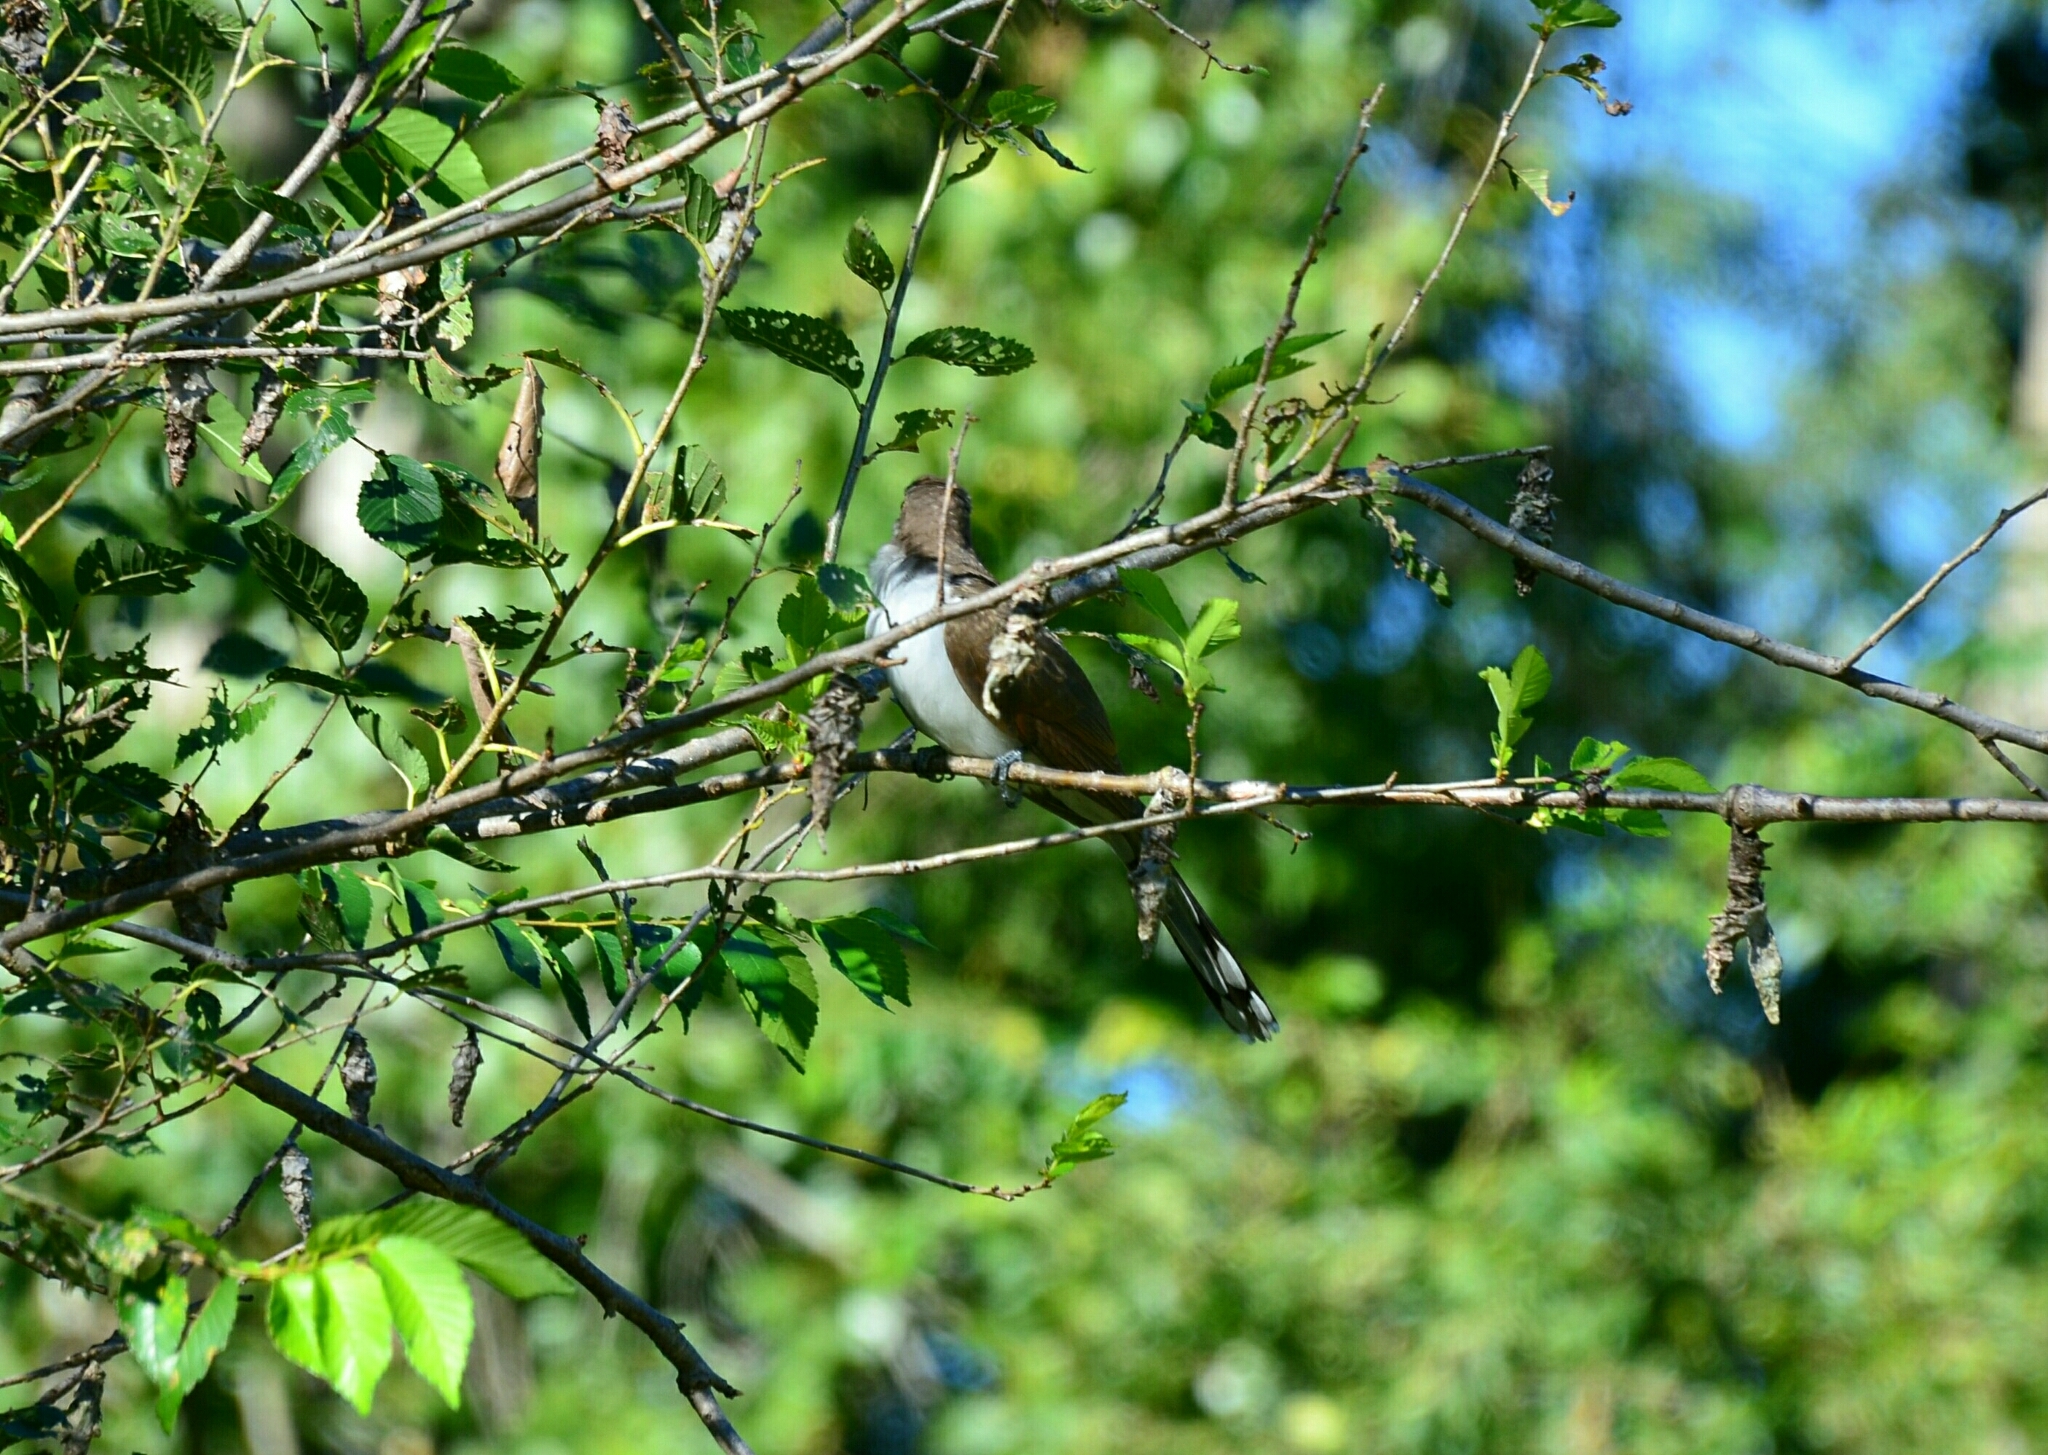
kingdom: Animalia
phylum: Chordata
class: Aves
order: Cuculiformes
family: Cuculidae
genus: Coccyzus
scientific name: Coccyzus americanus
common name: Yellow-billed cuckoo
